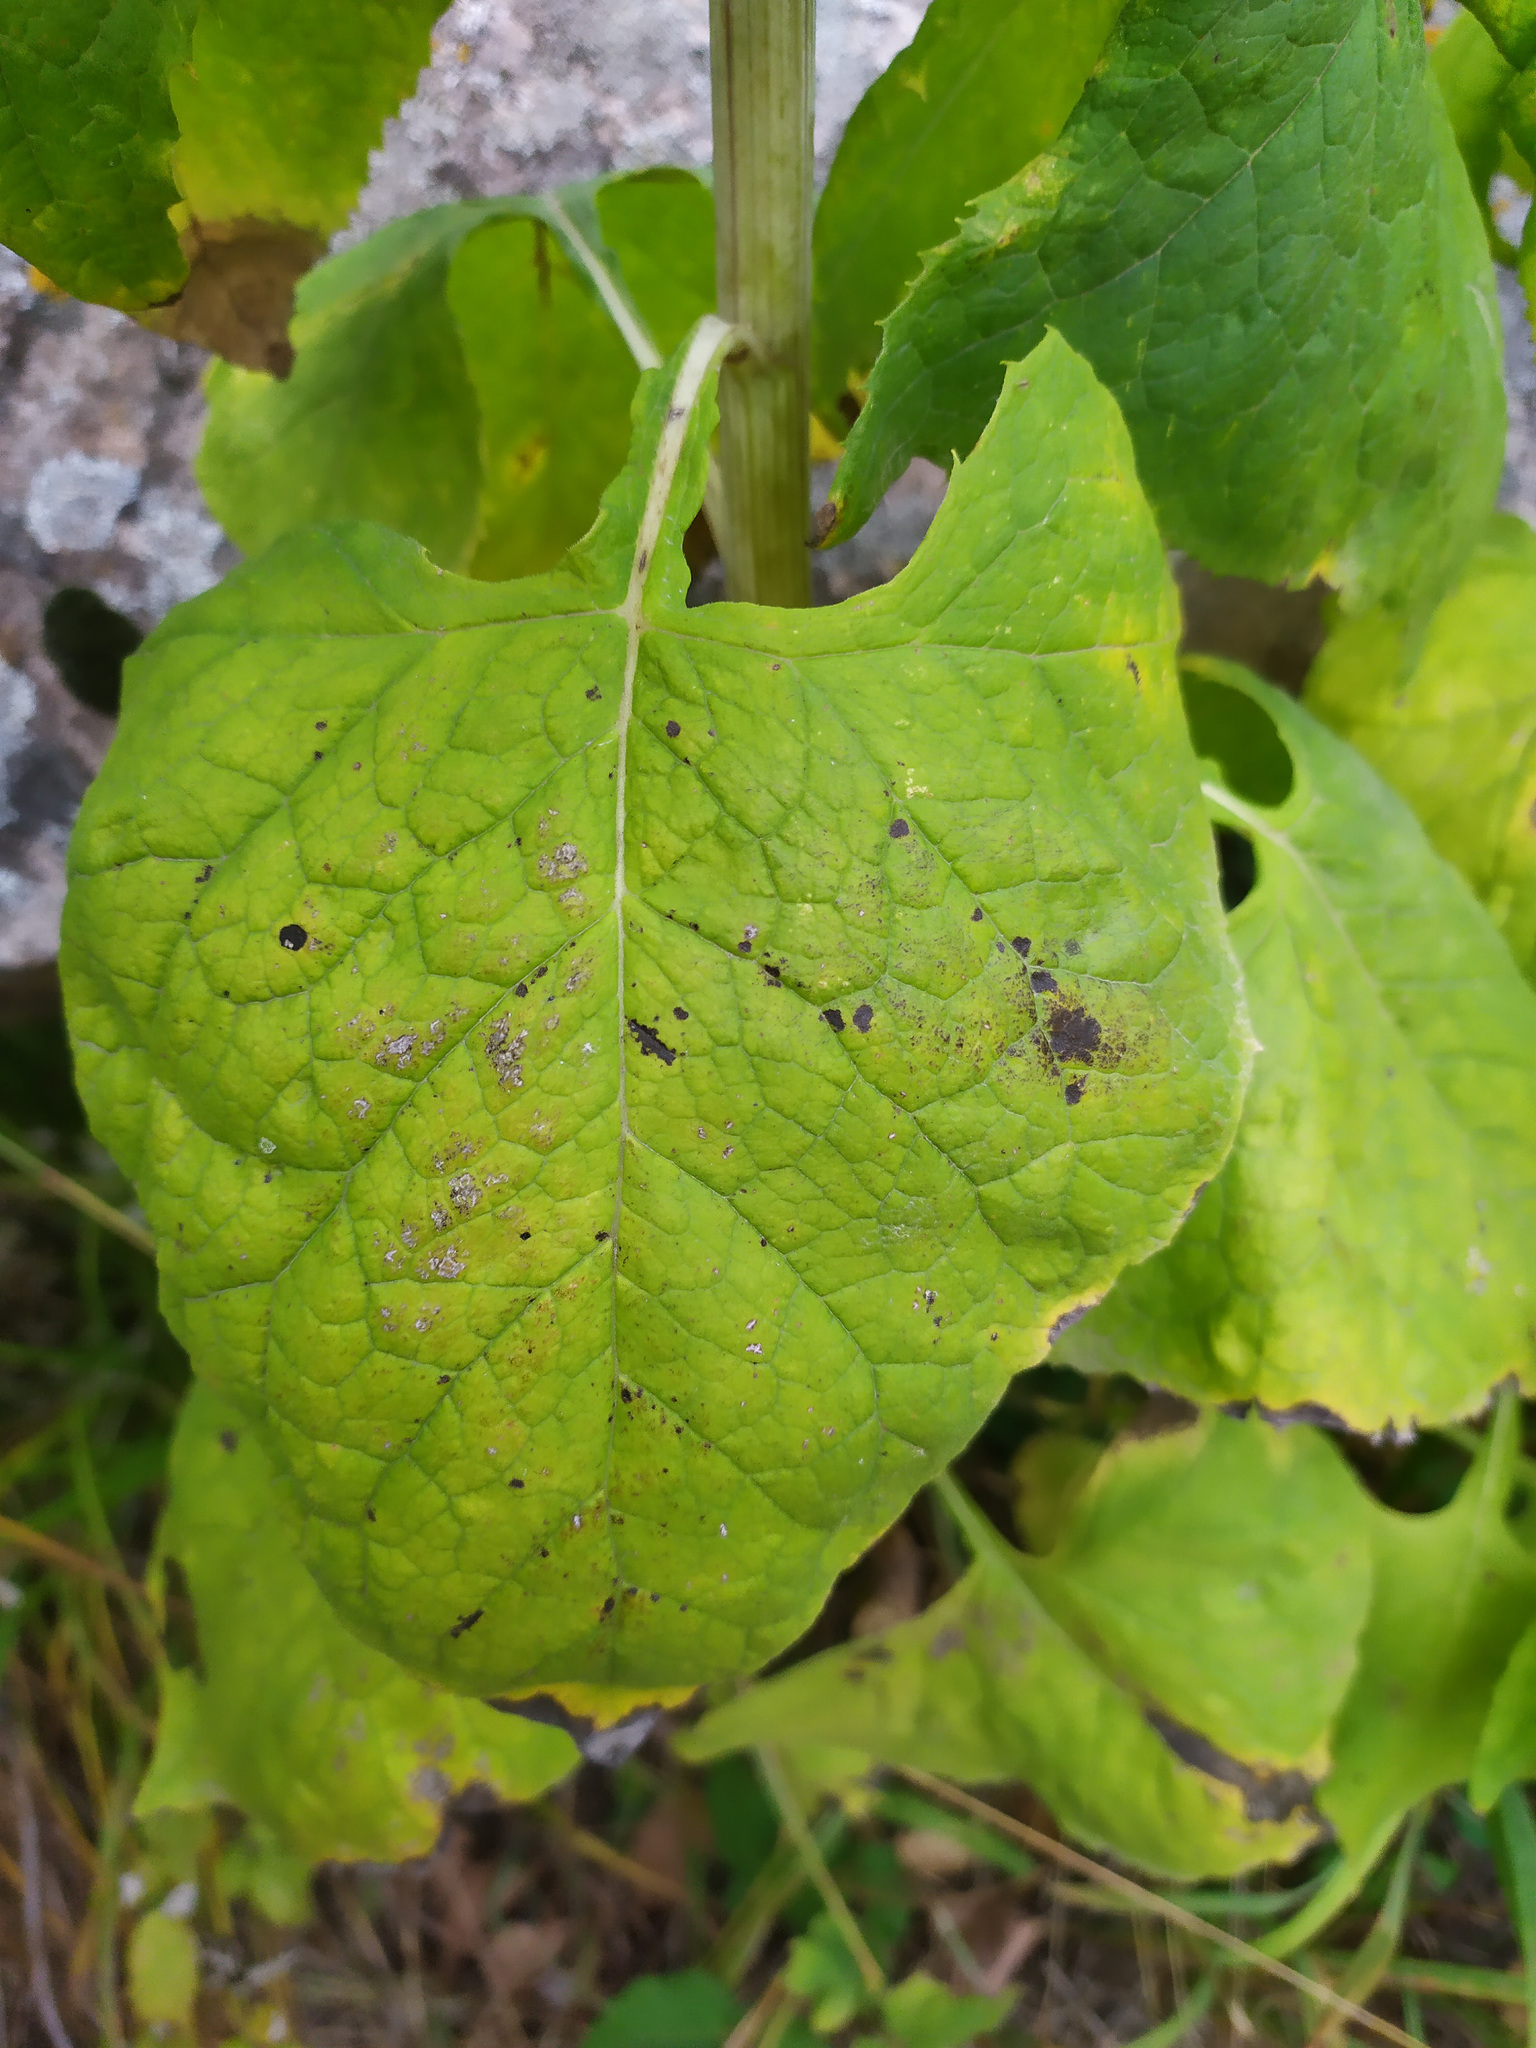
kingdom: Plantae
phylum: Tracheophyta
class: Magnoliopsida
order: Asterales
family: Asteraceae
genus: Parasenecio
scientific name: Parasenecio hastatus
